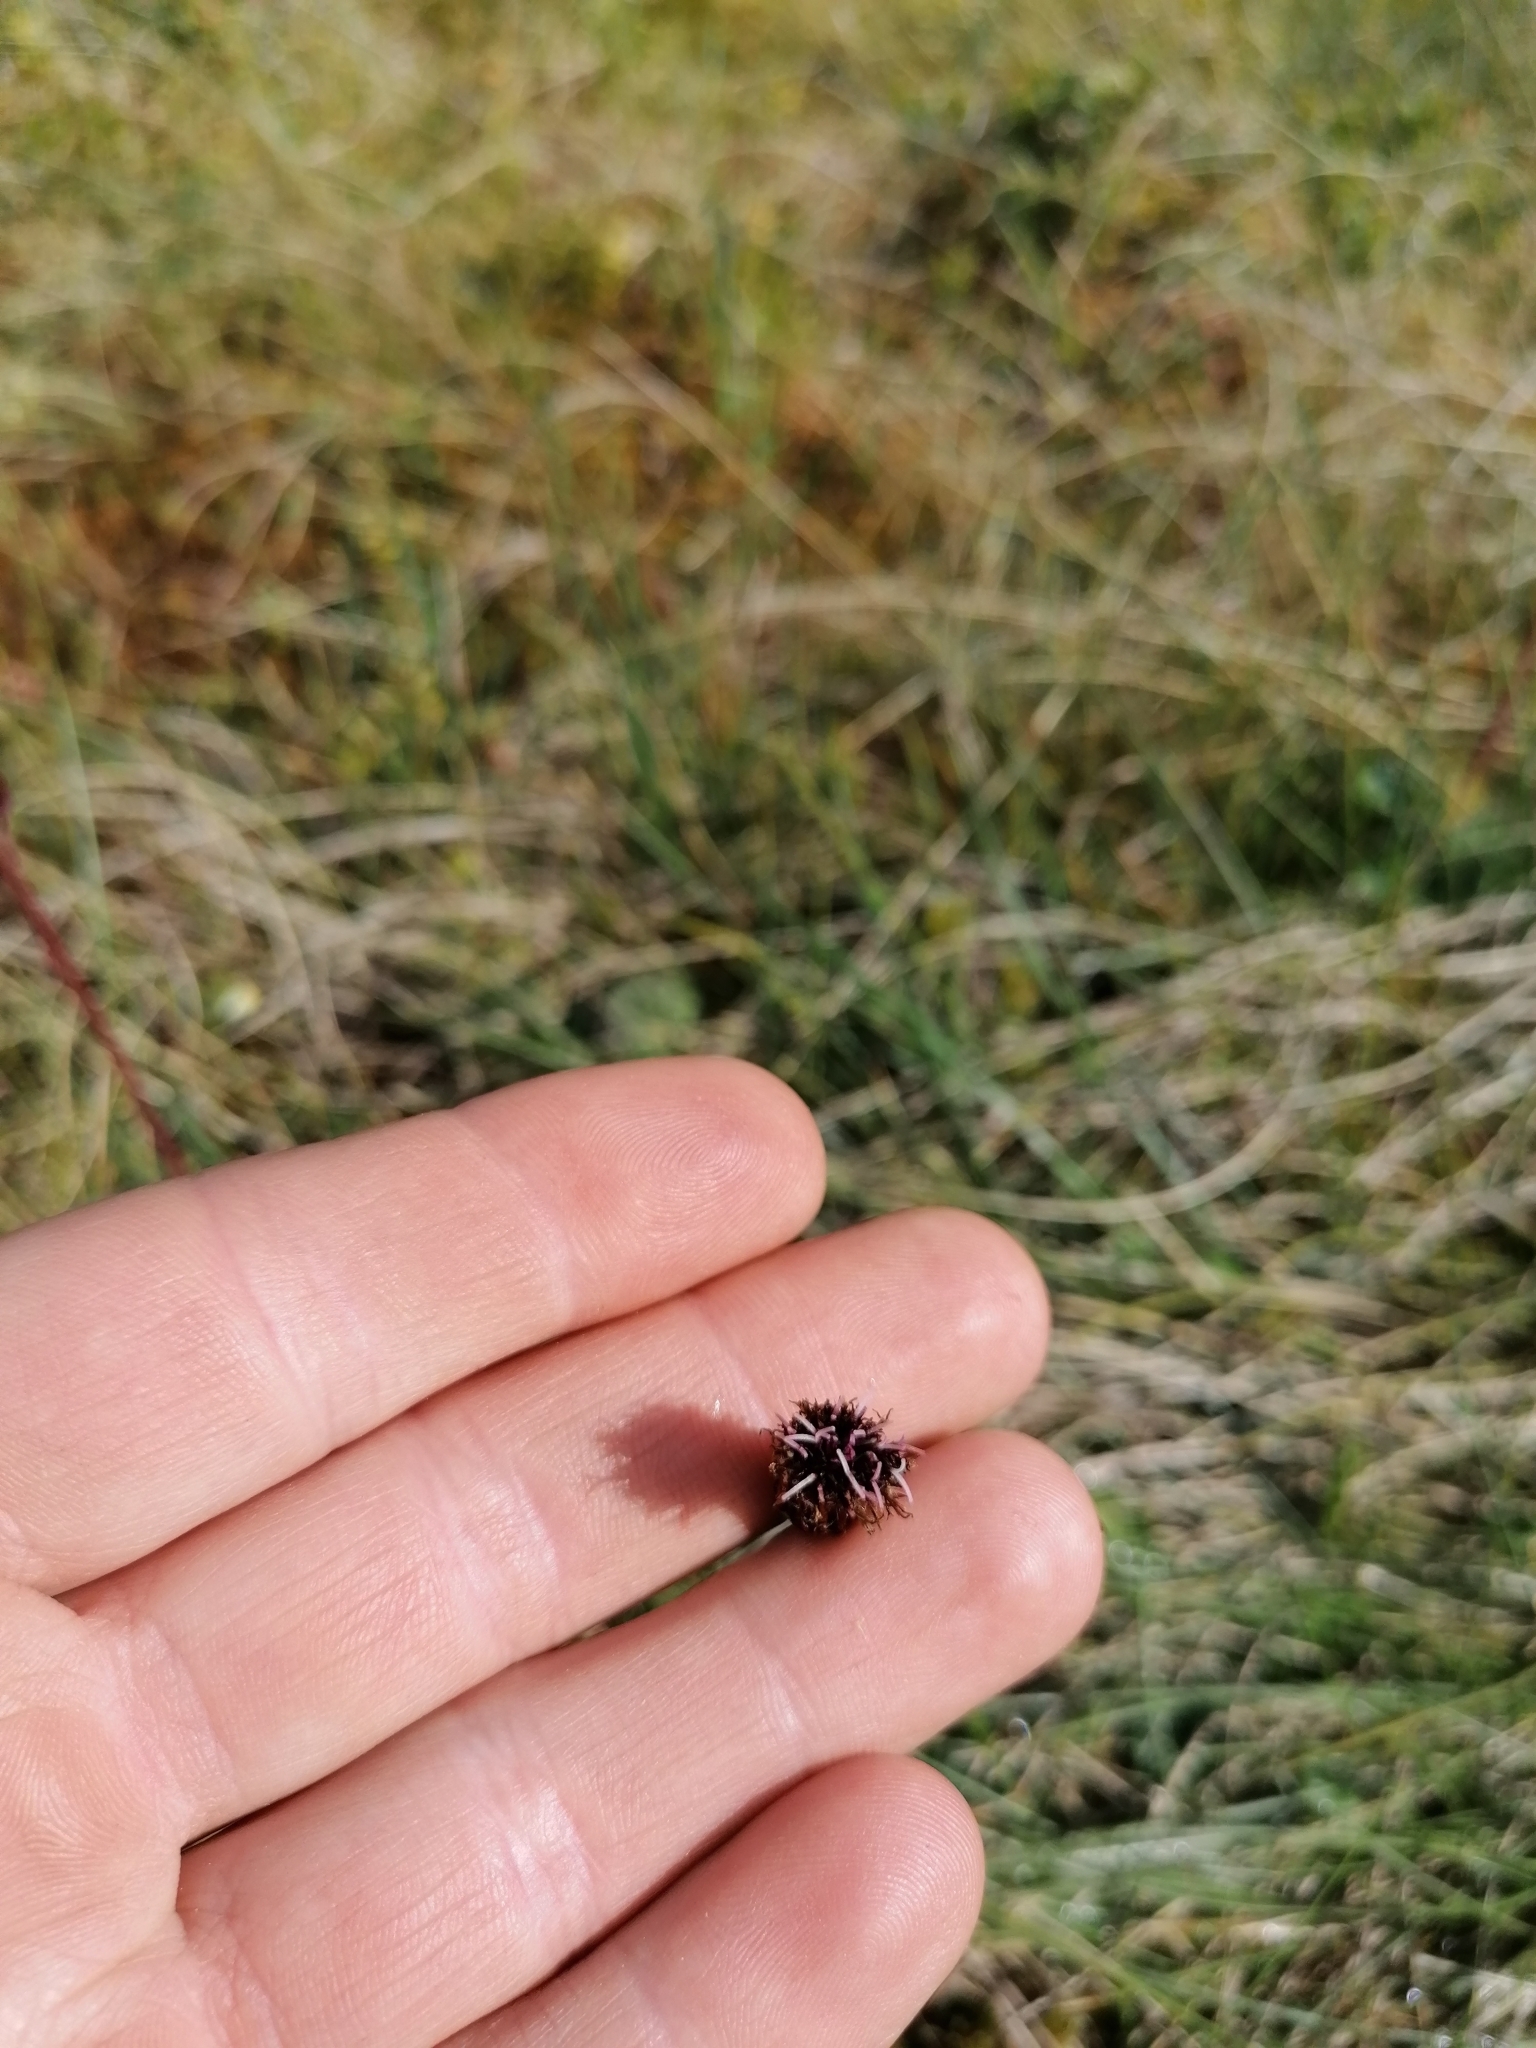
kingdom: Plantae
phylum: Tracheophyta
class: Magnoliopsida
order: Asterales
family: Asteraceae
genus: Homogyne
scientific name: Homogyne alpina
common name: Purple colt's-foot
